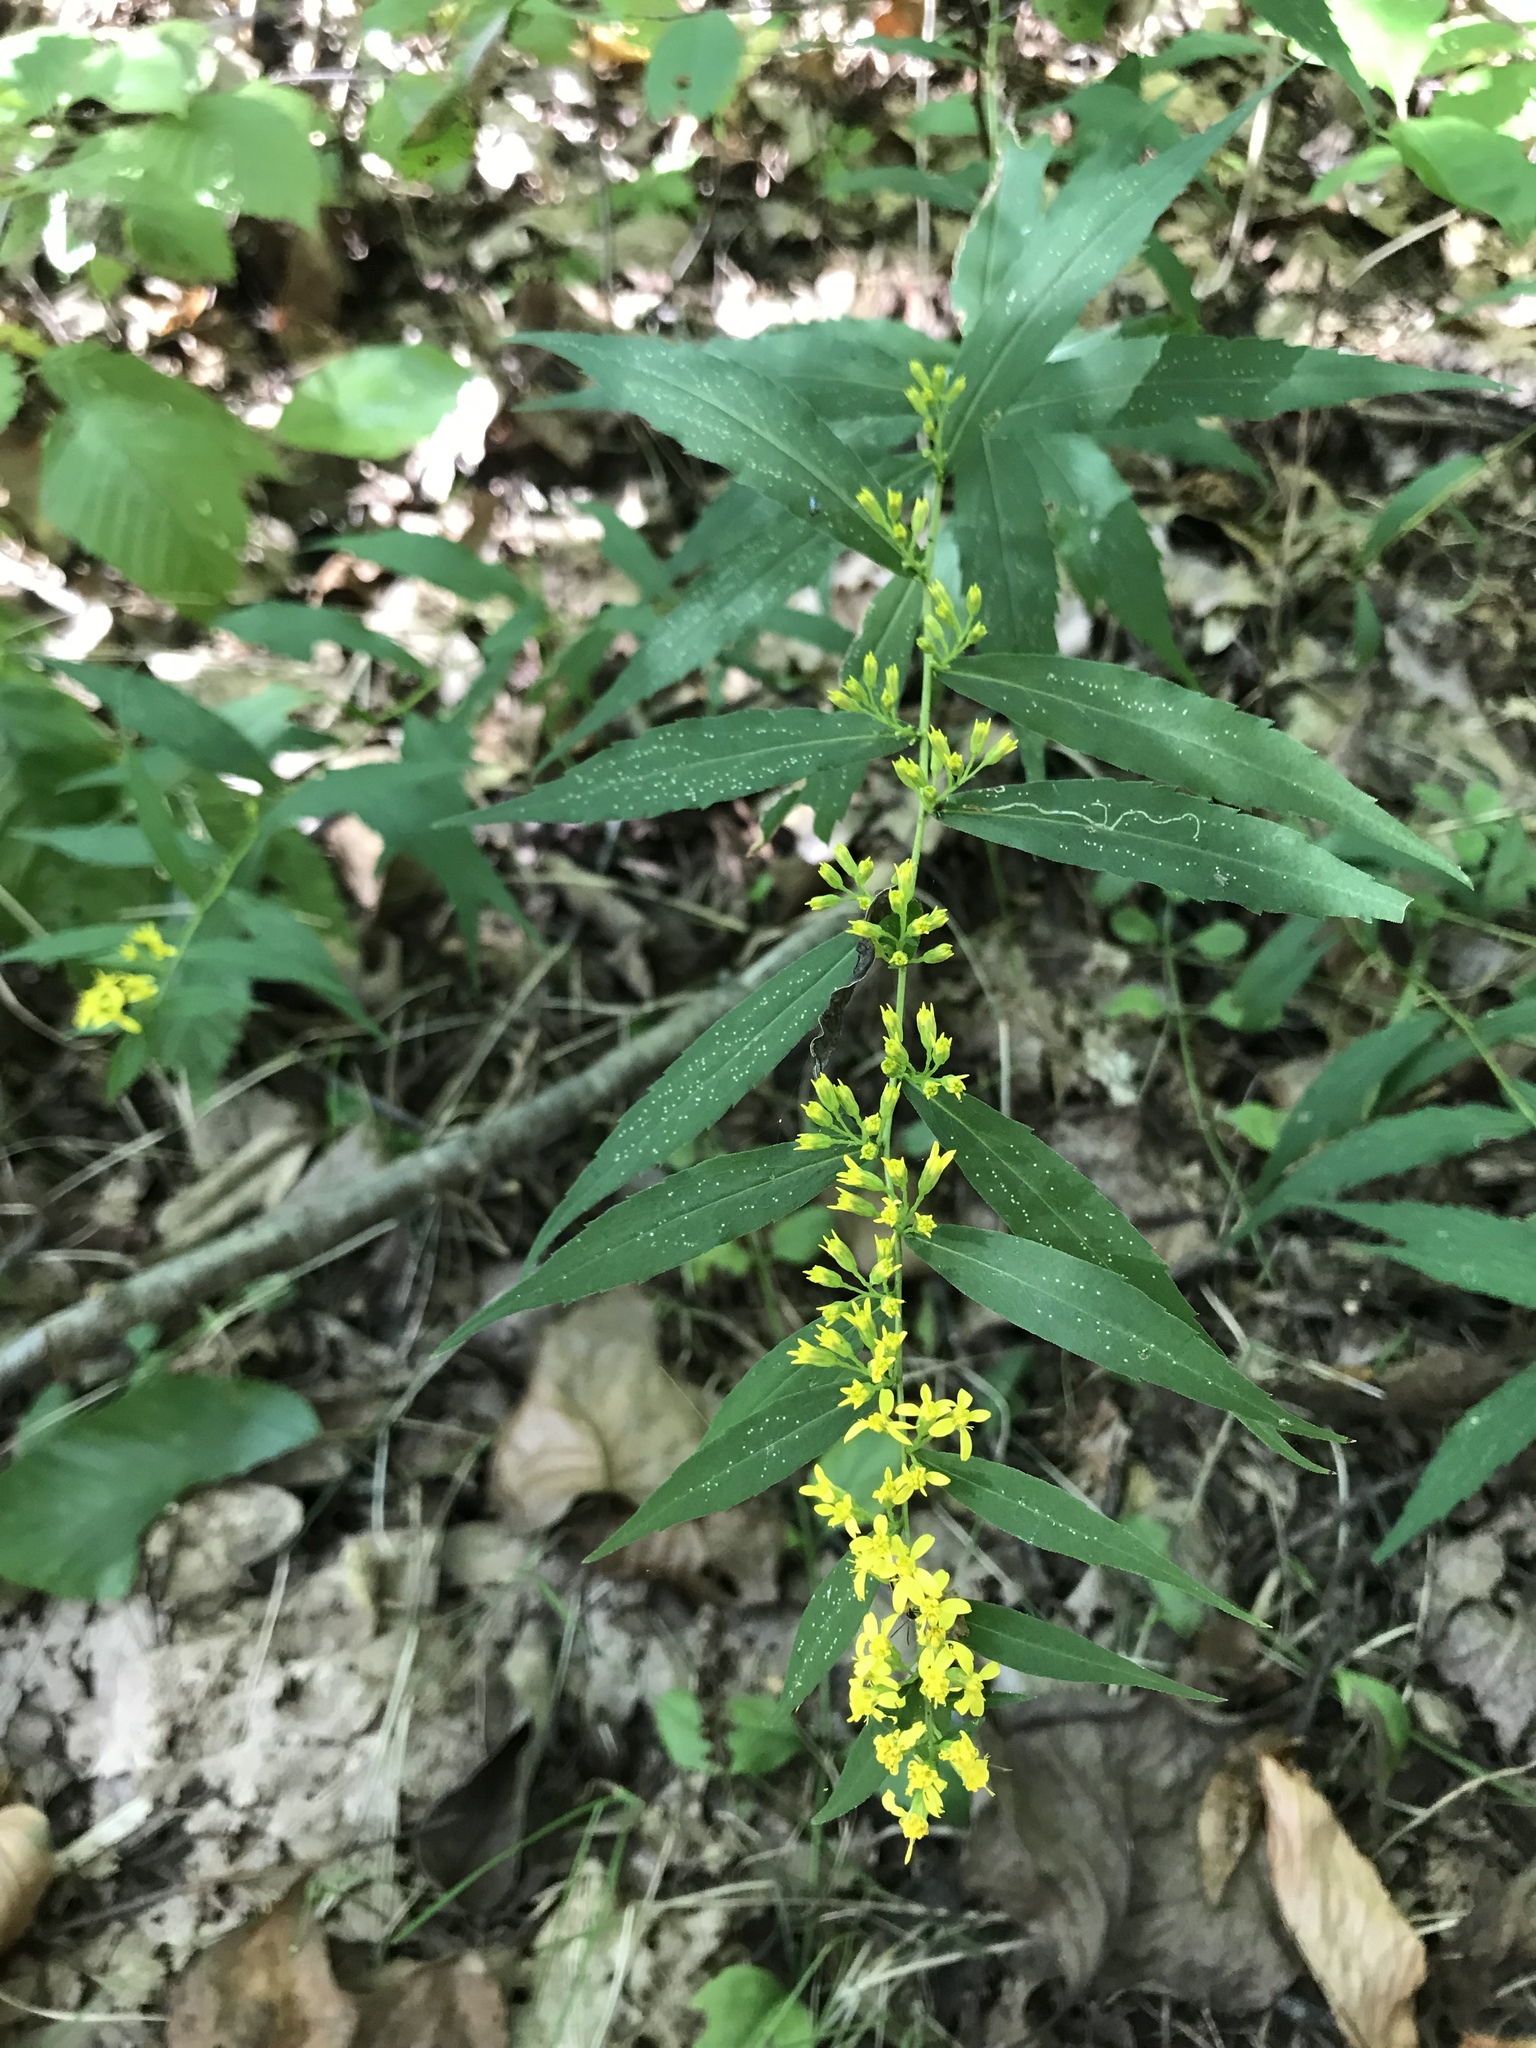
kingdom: Plantae
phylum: Tracheophyta
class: Magnoliopsida
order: Asterales
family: Asteraceae
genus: Solidago
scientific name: Solidago caesia
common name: Woodland goldenrod
